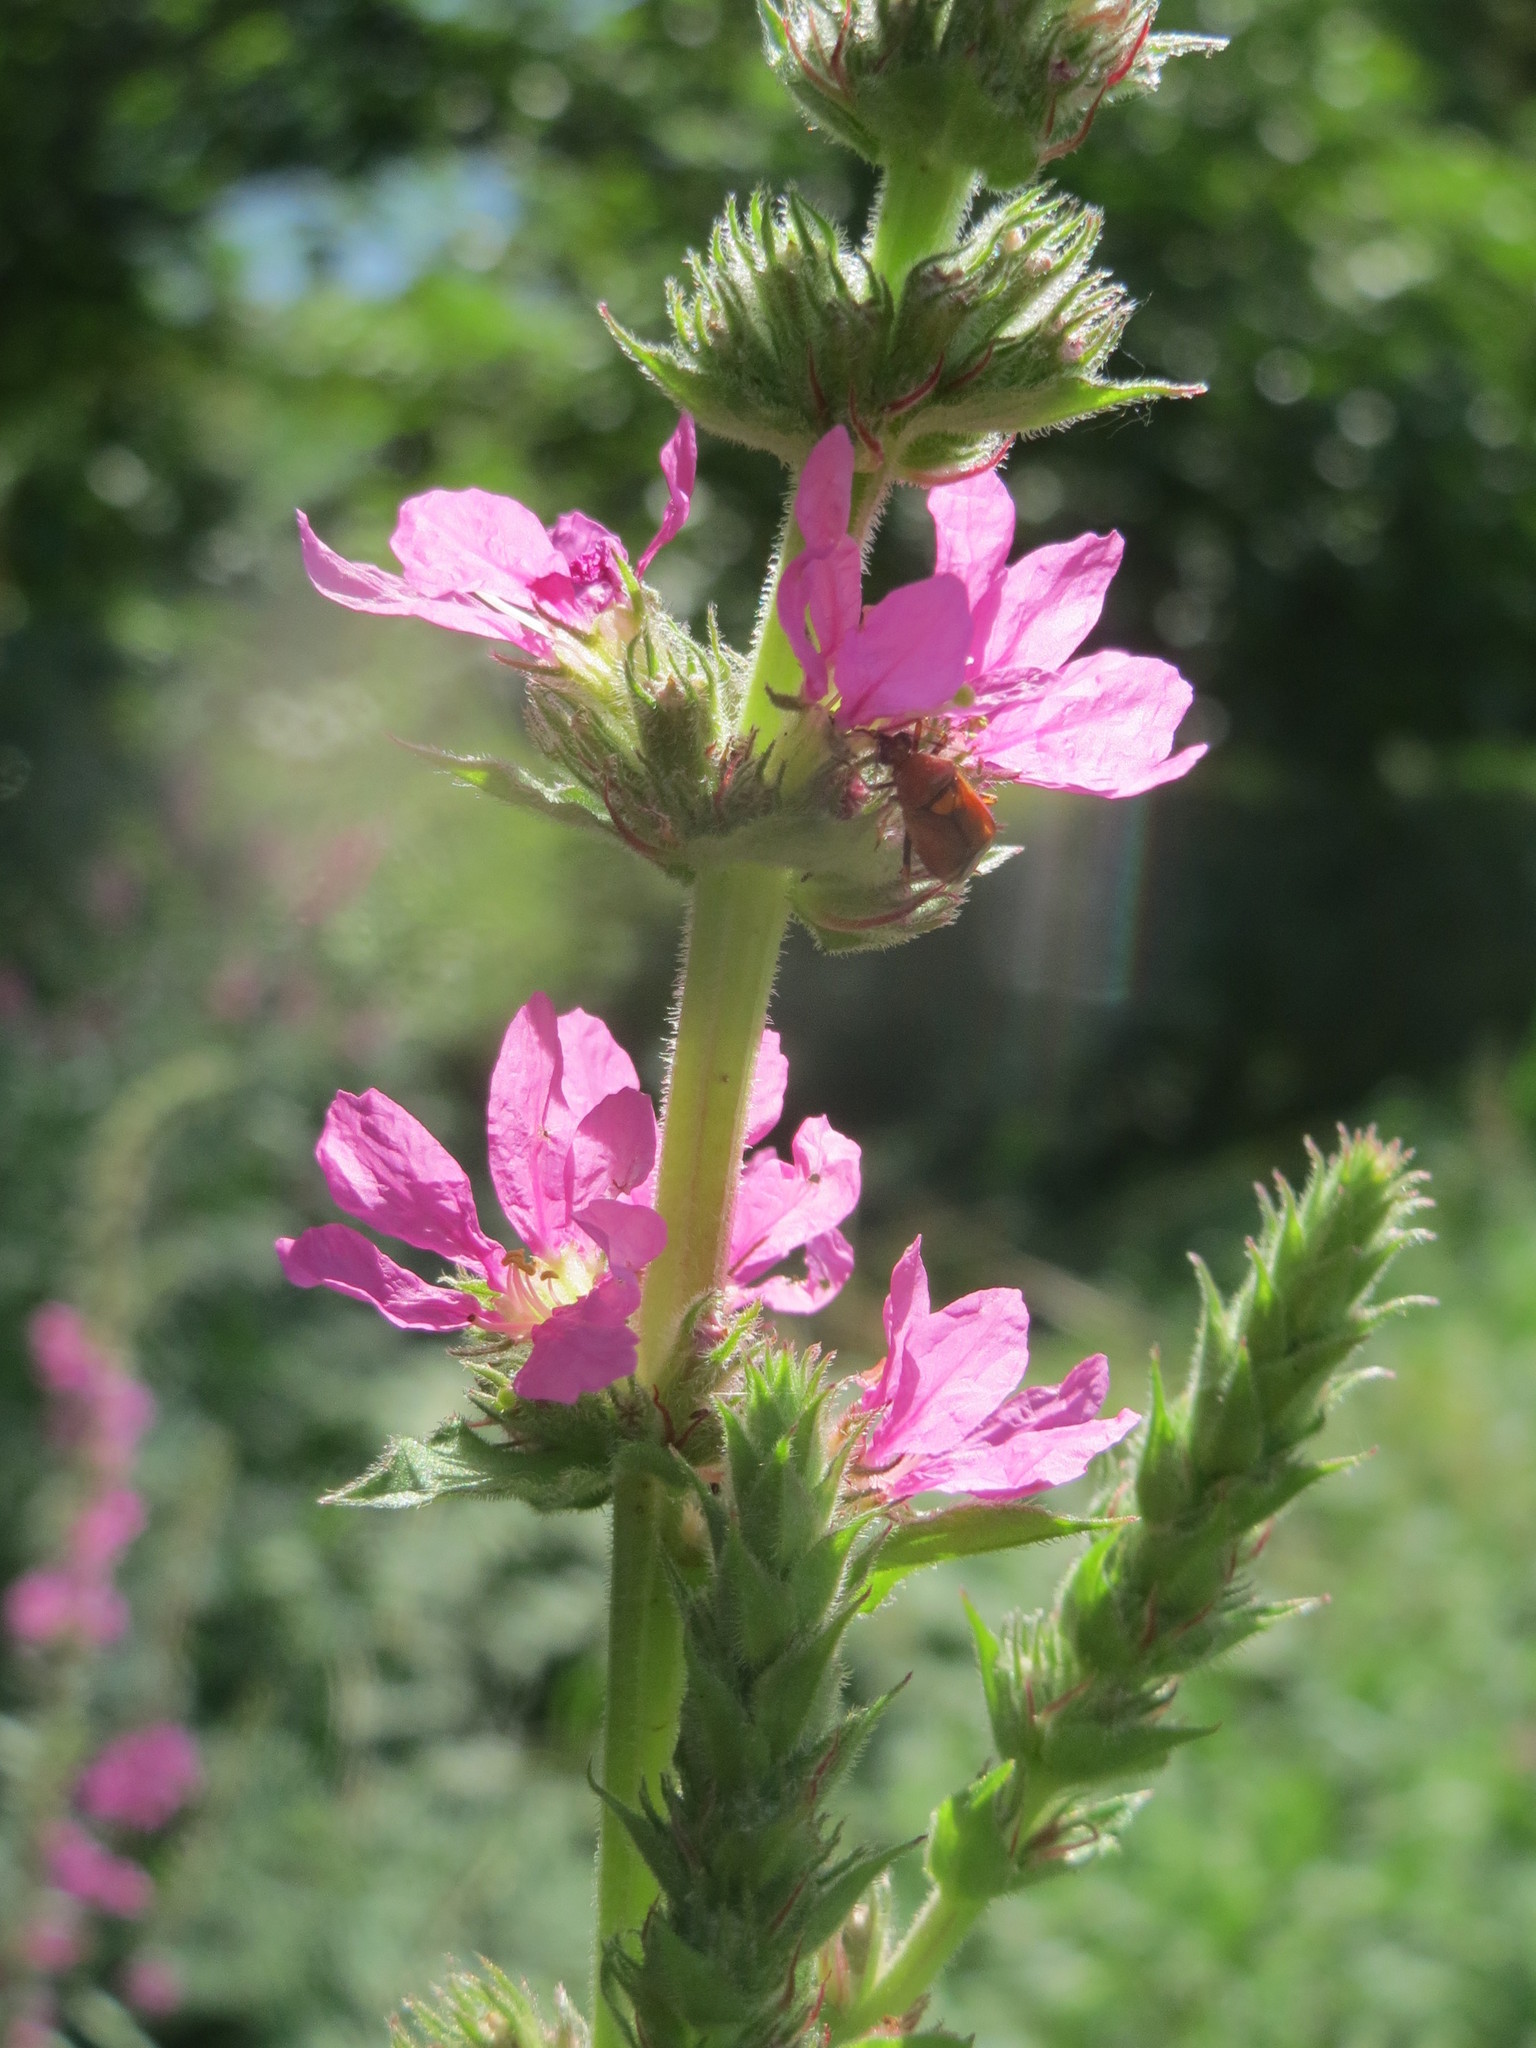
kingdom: Plantae
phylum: Tracheophyta
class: Magnoliopsida
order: Myrtales
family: Lythraceae
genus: Lythrum
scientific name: Lythrum salicaria
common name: Purple loosestrife
